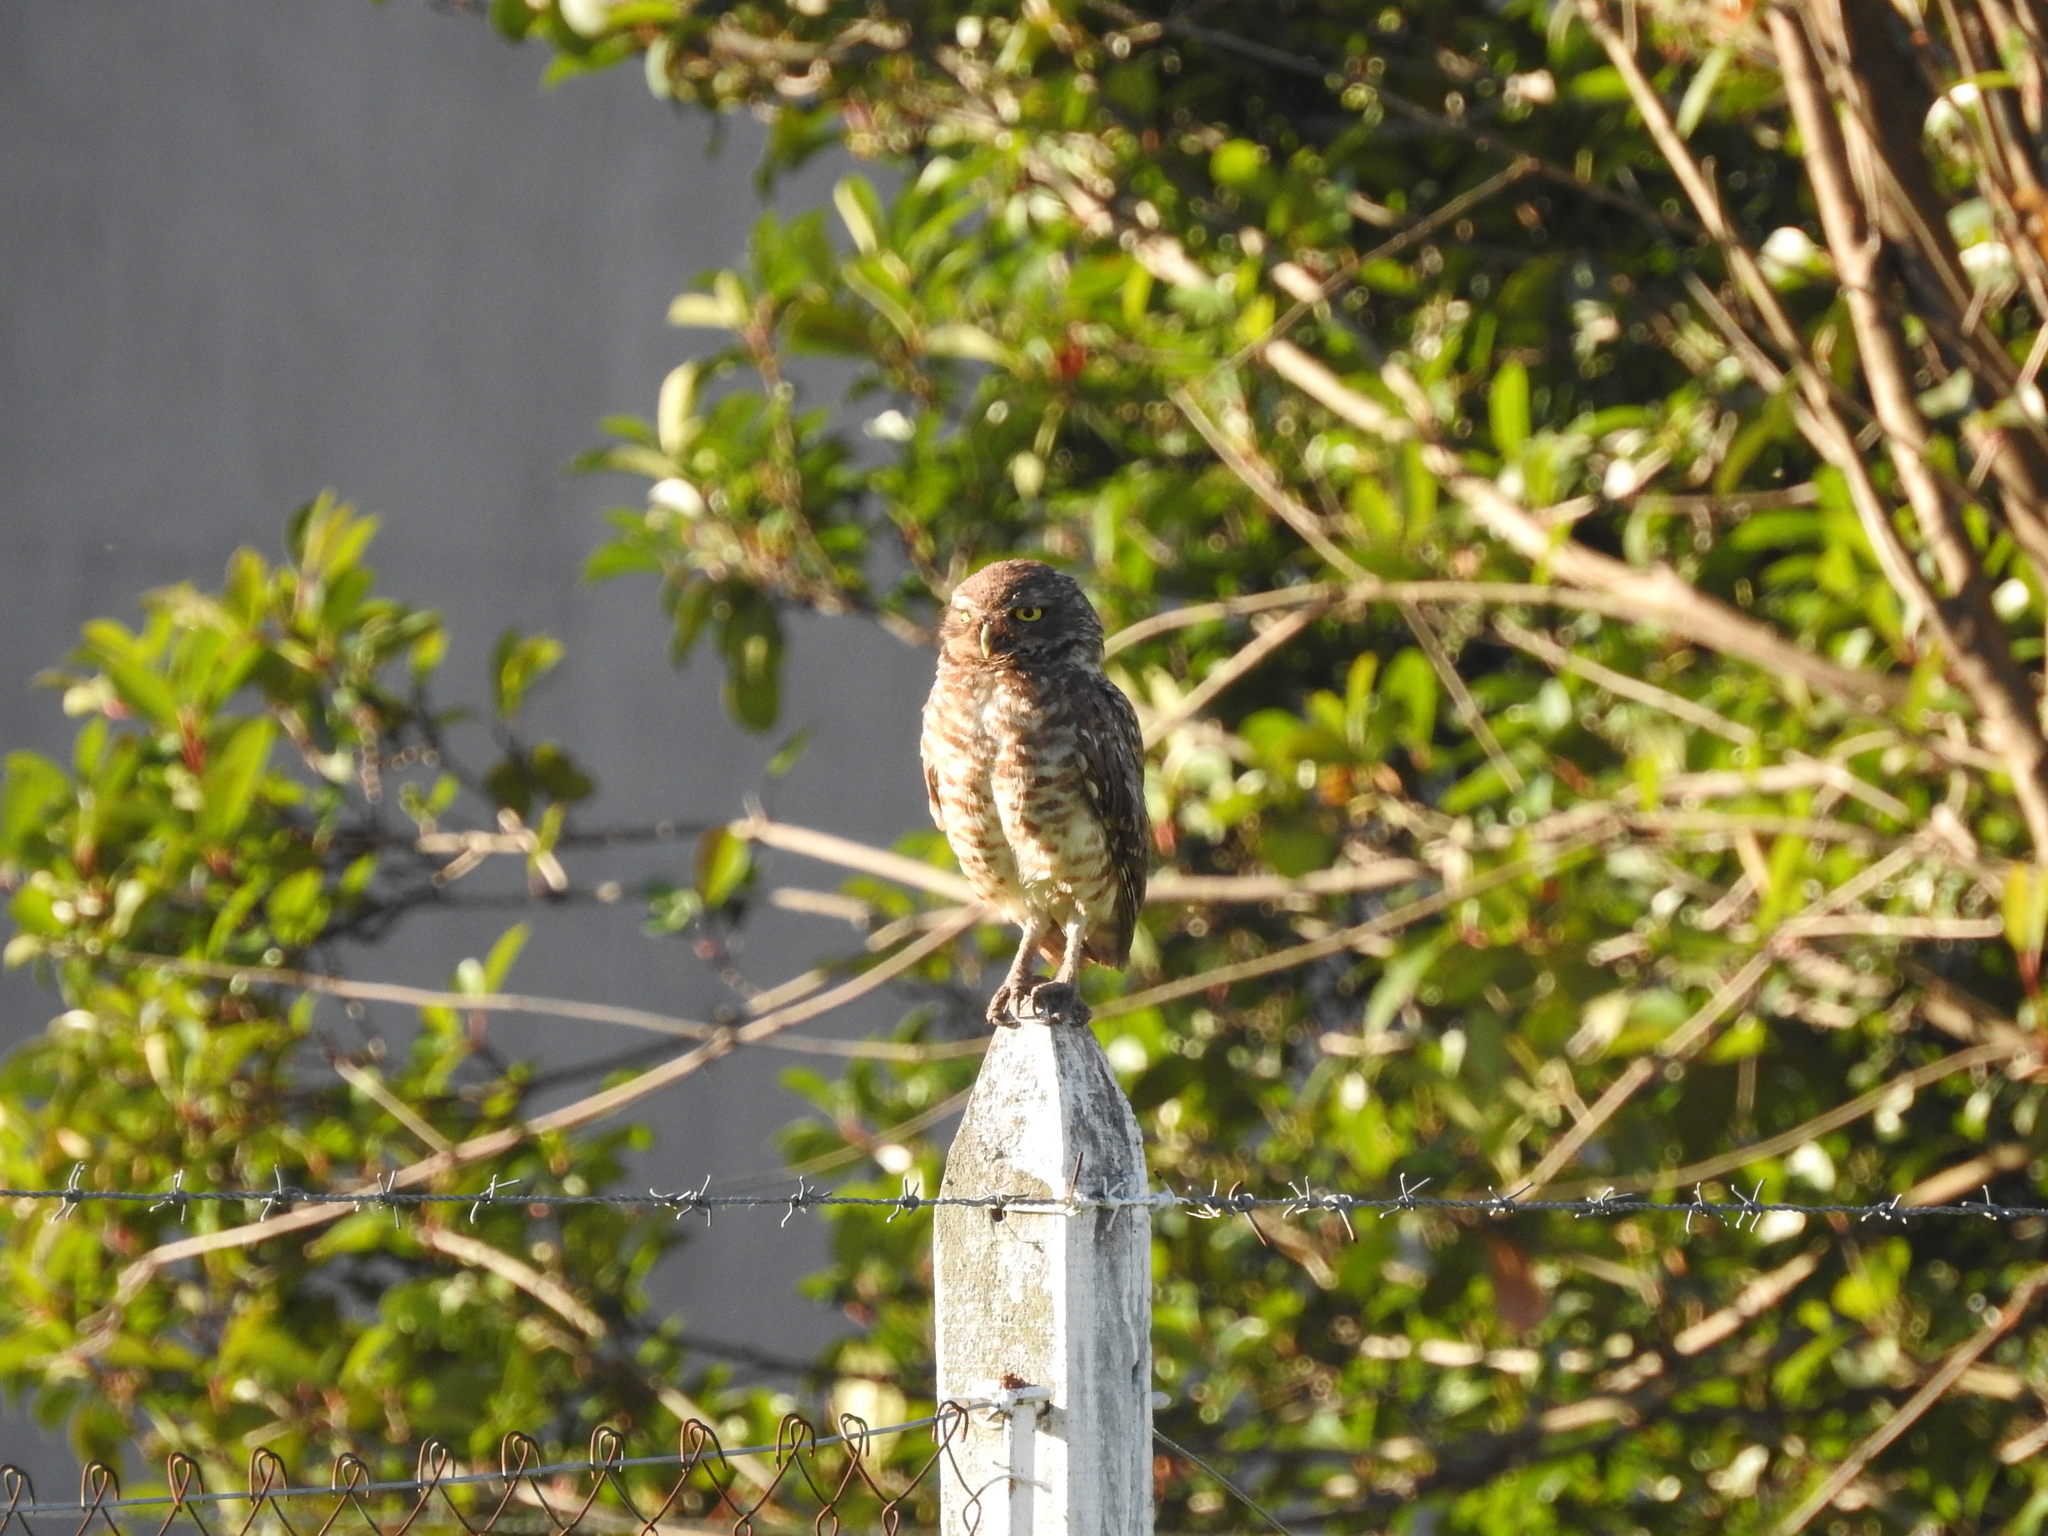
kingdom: Animalia
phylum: Chordata
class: Aves
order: Strigiformes
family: Strigidae
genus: Athene
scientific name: Athene cunicularia
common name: Burrowing owl
